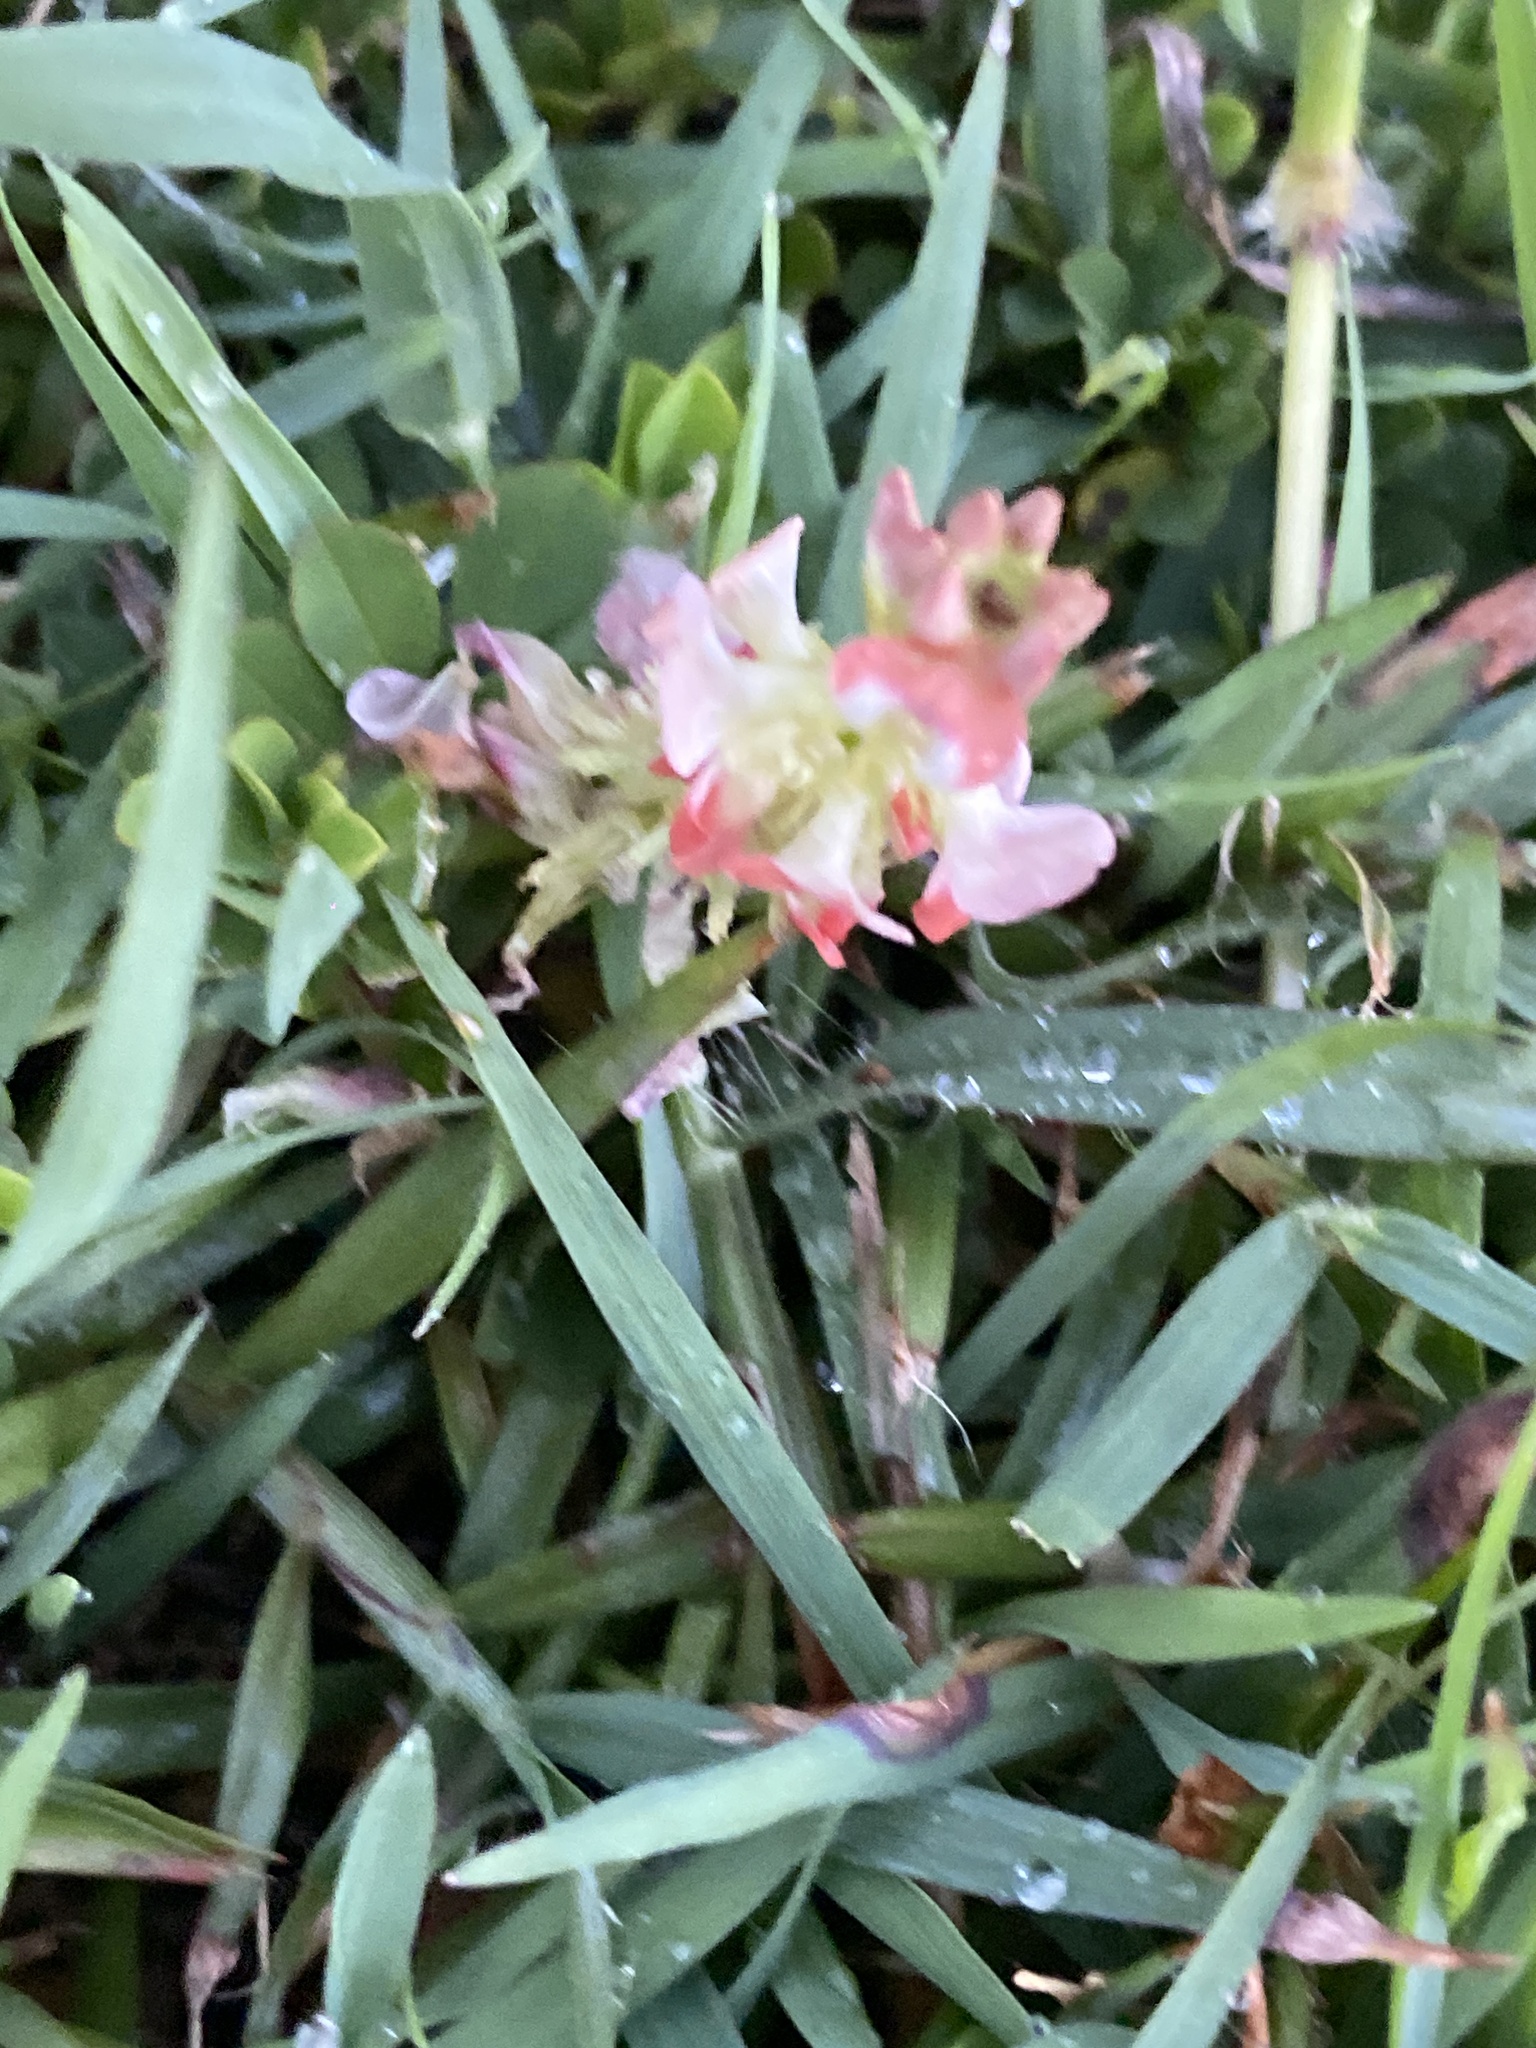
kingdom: Plantae
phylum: Tracheophyta
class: Magnoliopsida
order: Fabales
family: Fabaceae
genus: Indigofera
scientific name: Indigofera spicata
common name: Creeping indigo
